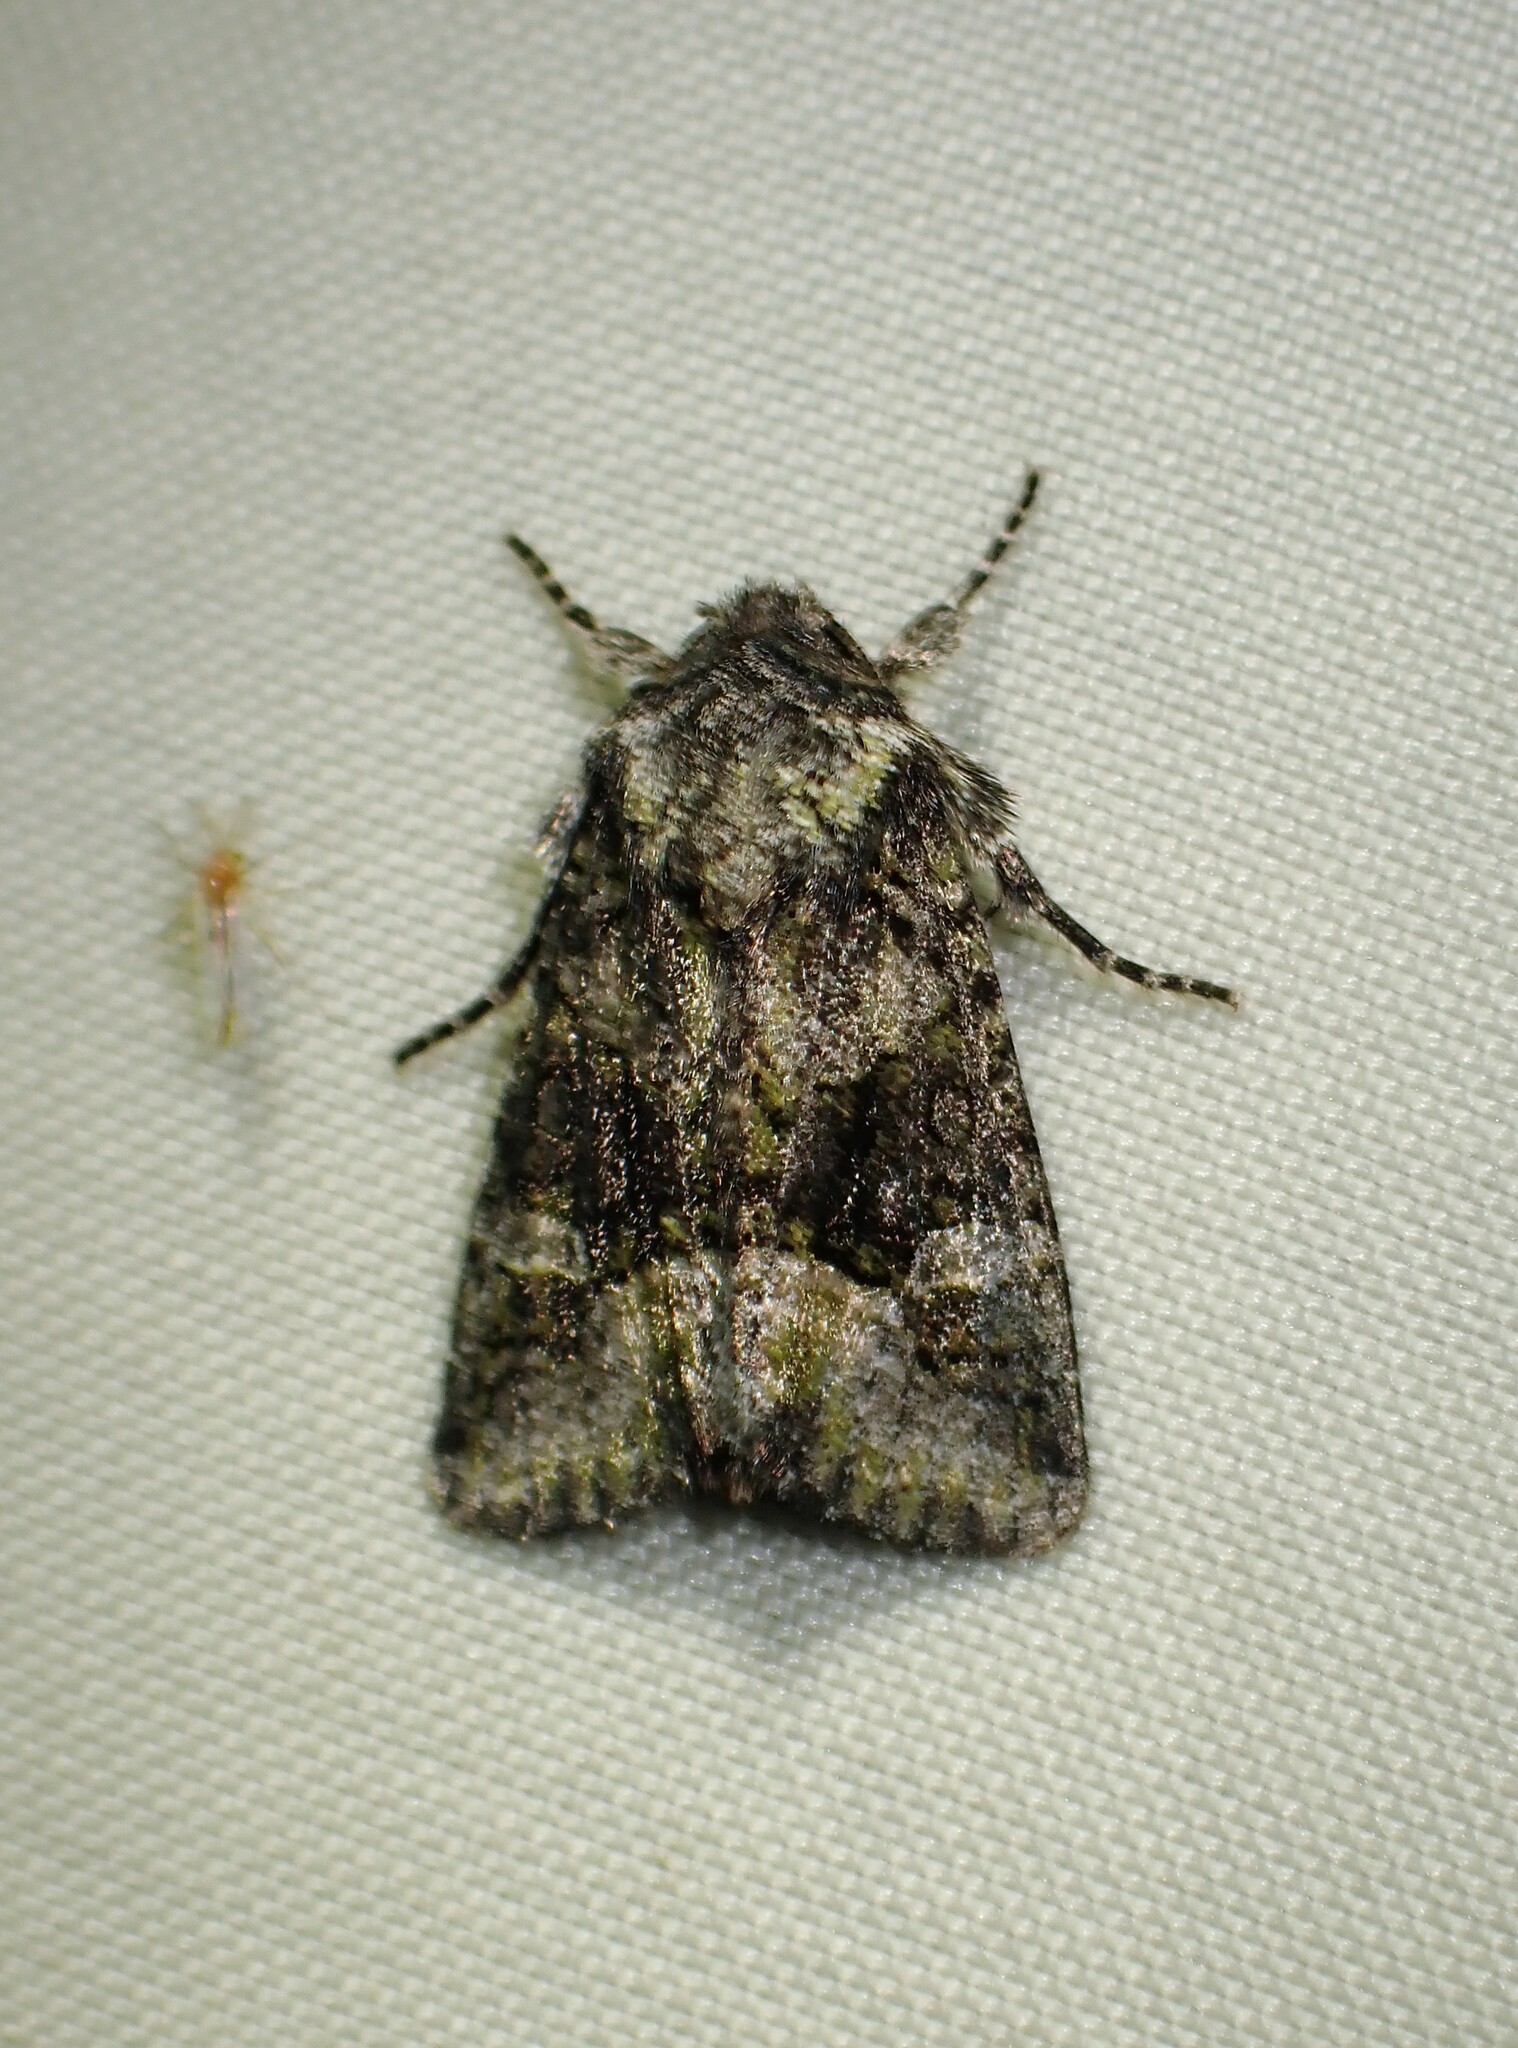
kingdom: Animalia
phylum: Arthropoda
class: Insecta
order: Lepidoptera
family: Noctuidae
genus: Lacinipolia
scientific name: Lacinipolia olivacea
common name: Olive arches moth
